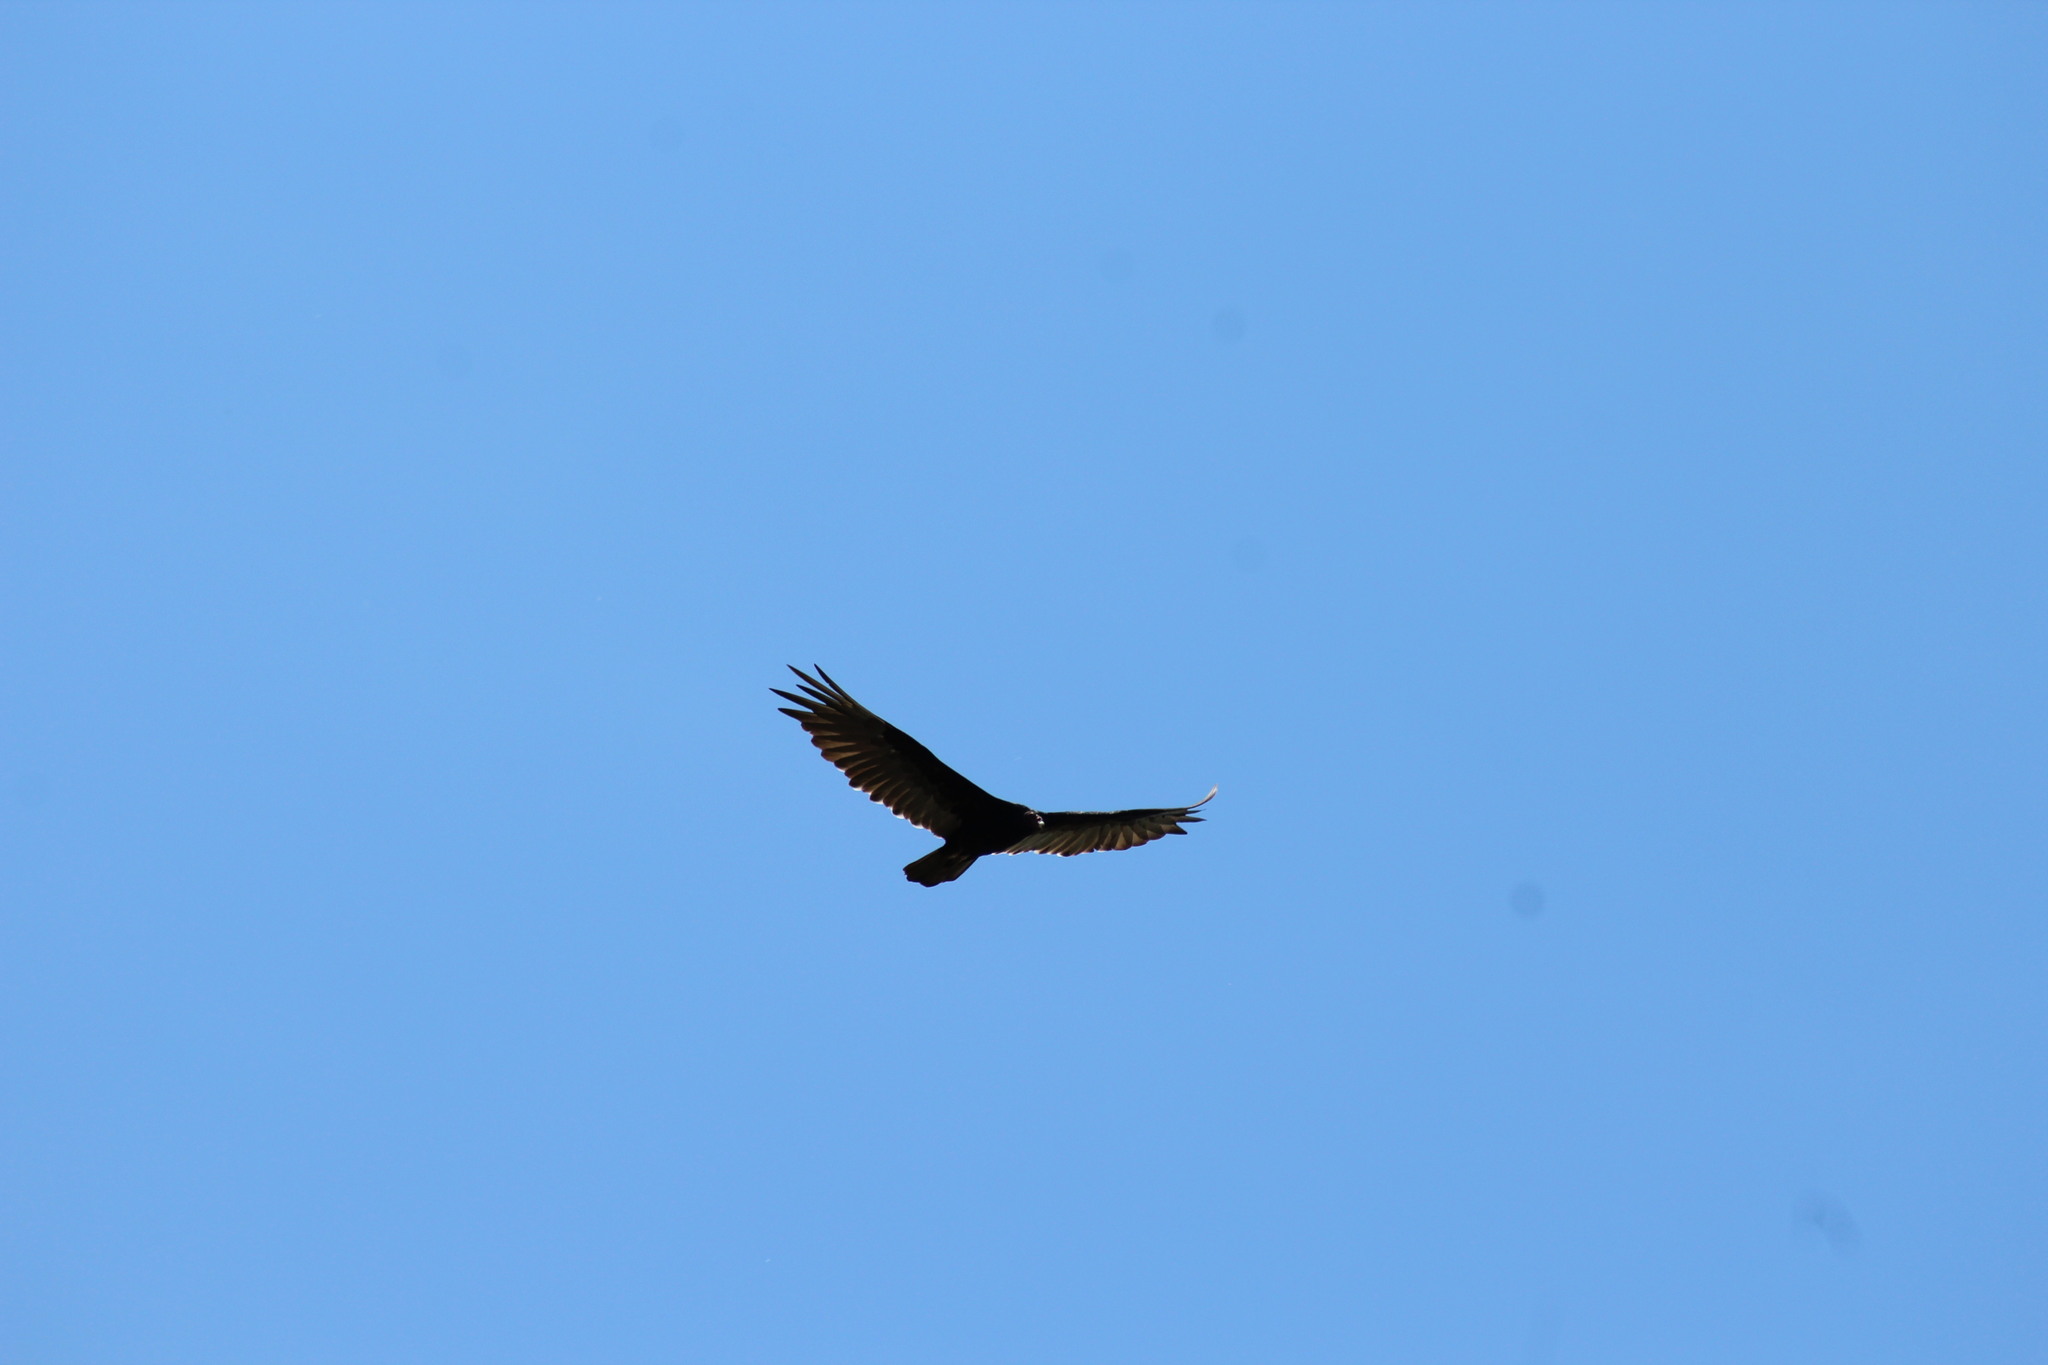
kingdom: Animalia
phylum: Chordata
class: Aves
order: Accipitriformes
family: Cathartidae
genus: Cathartes
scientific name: Cathartes aura
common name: Turkey vulture
